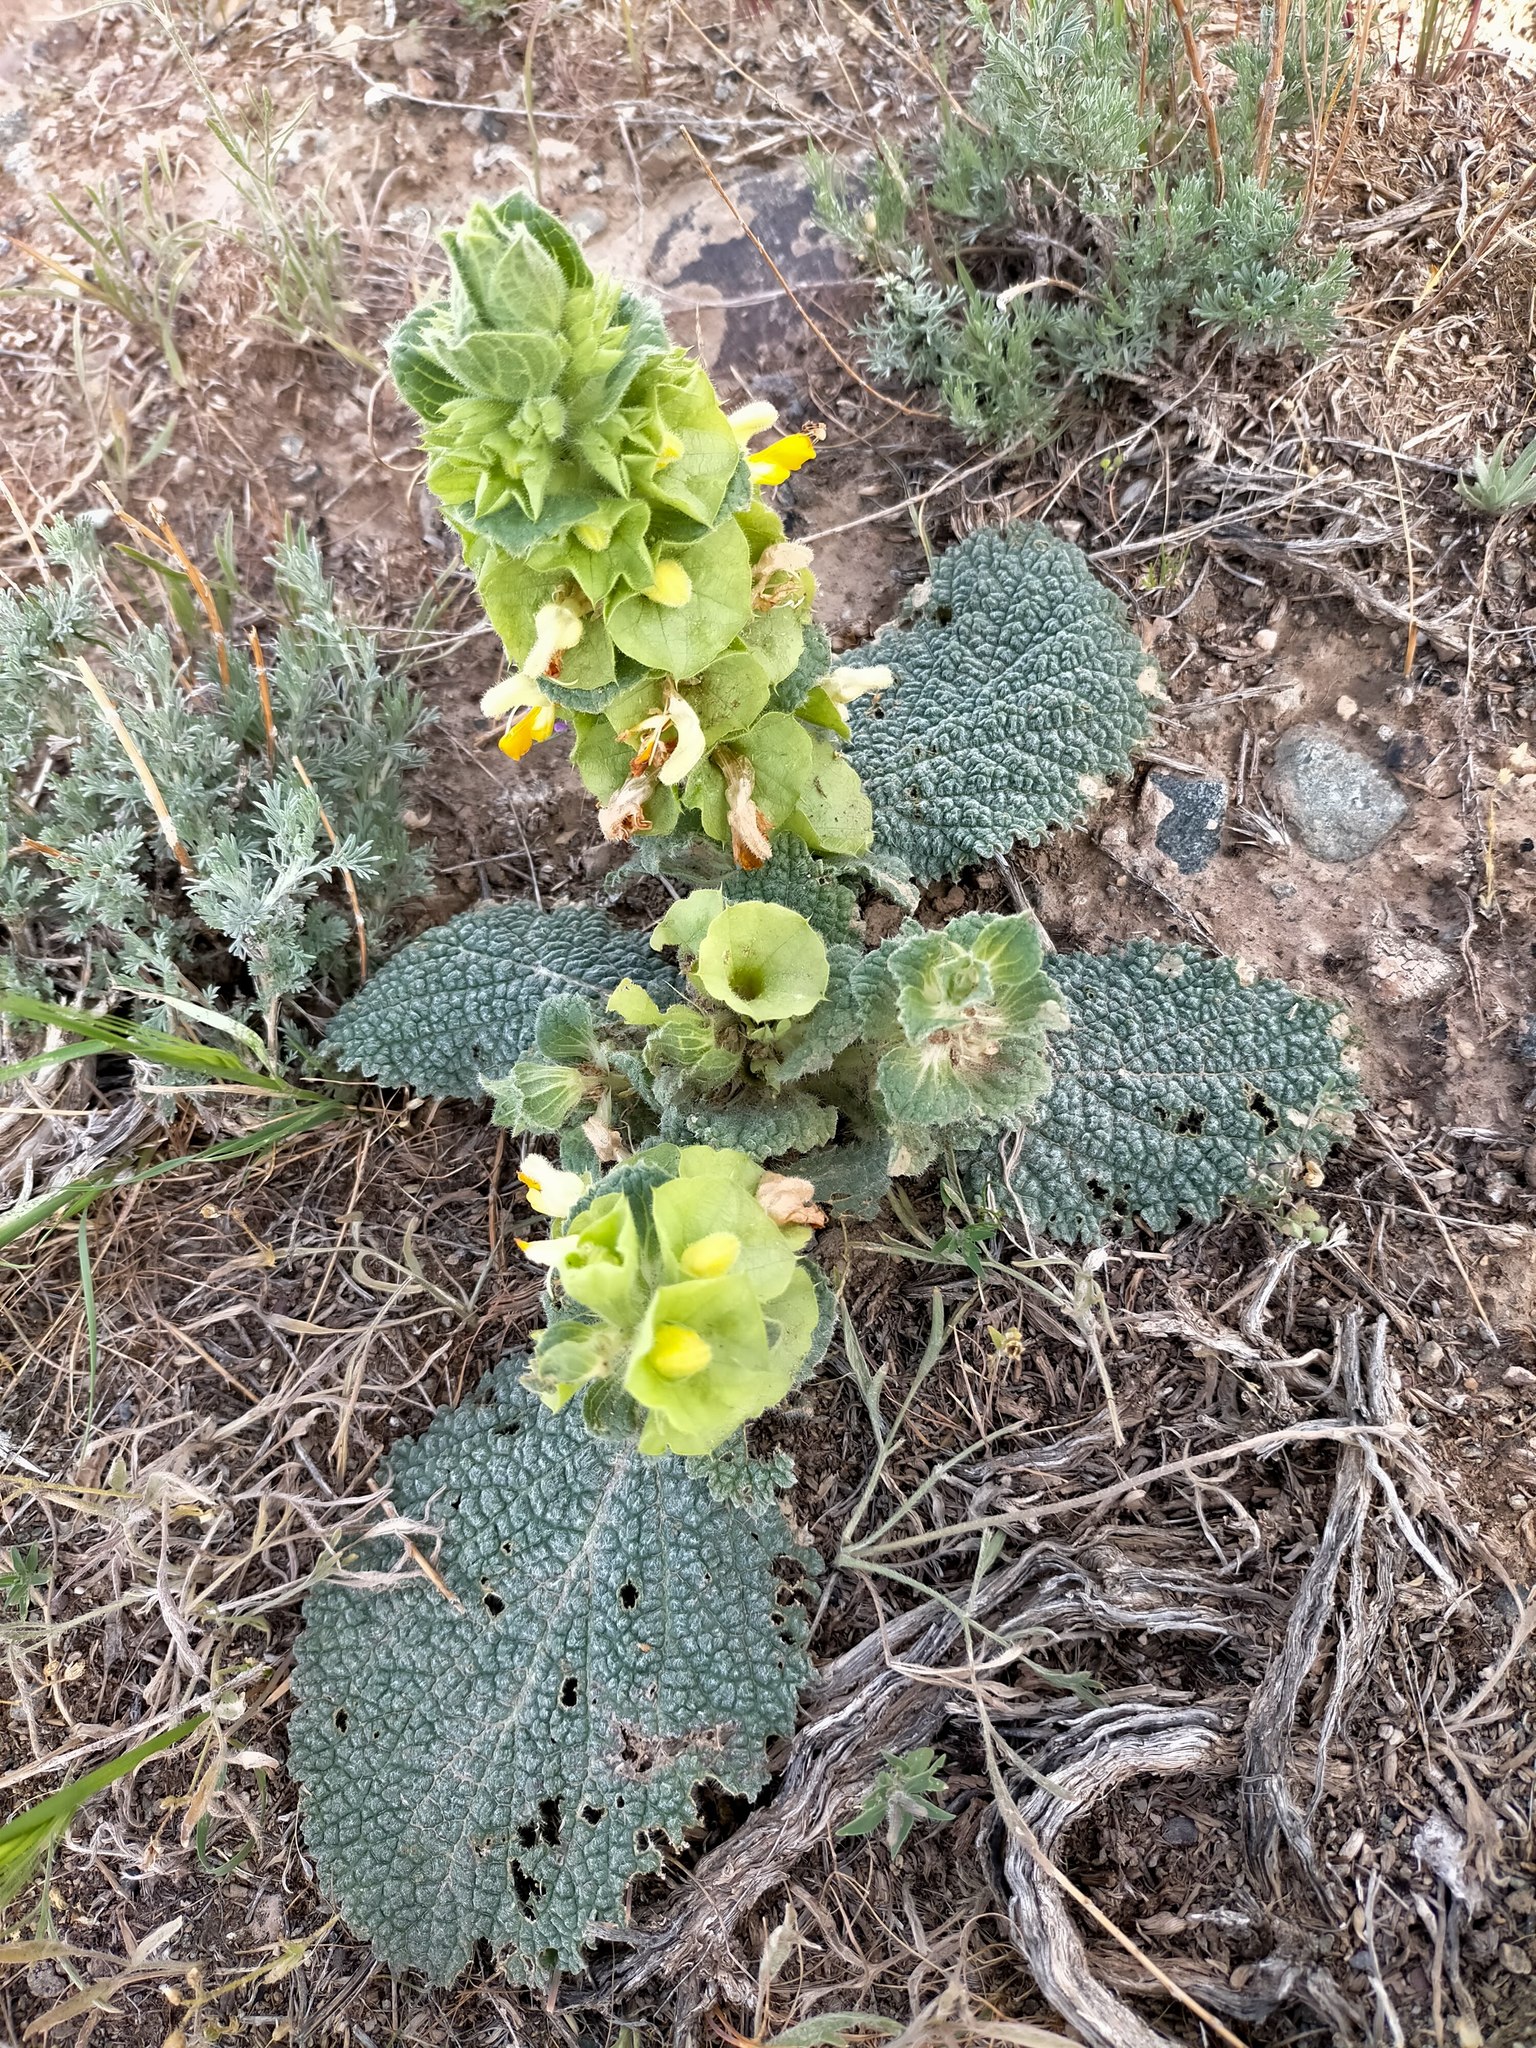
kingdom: Plantae
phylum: Tracheophyta
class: Magnoliopsida
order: Lamiales
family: Lamiaceae
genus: Phlomoides
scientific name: Phlomoides molucelloides
